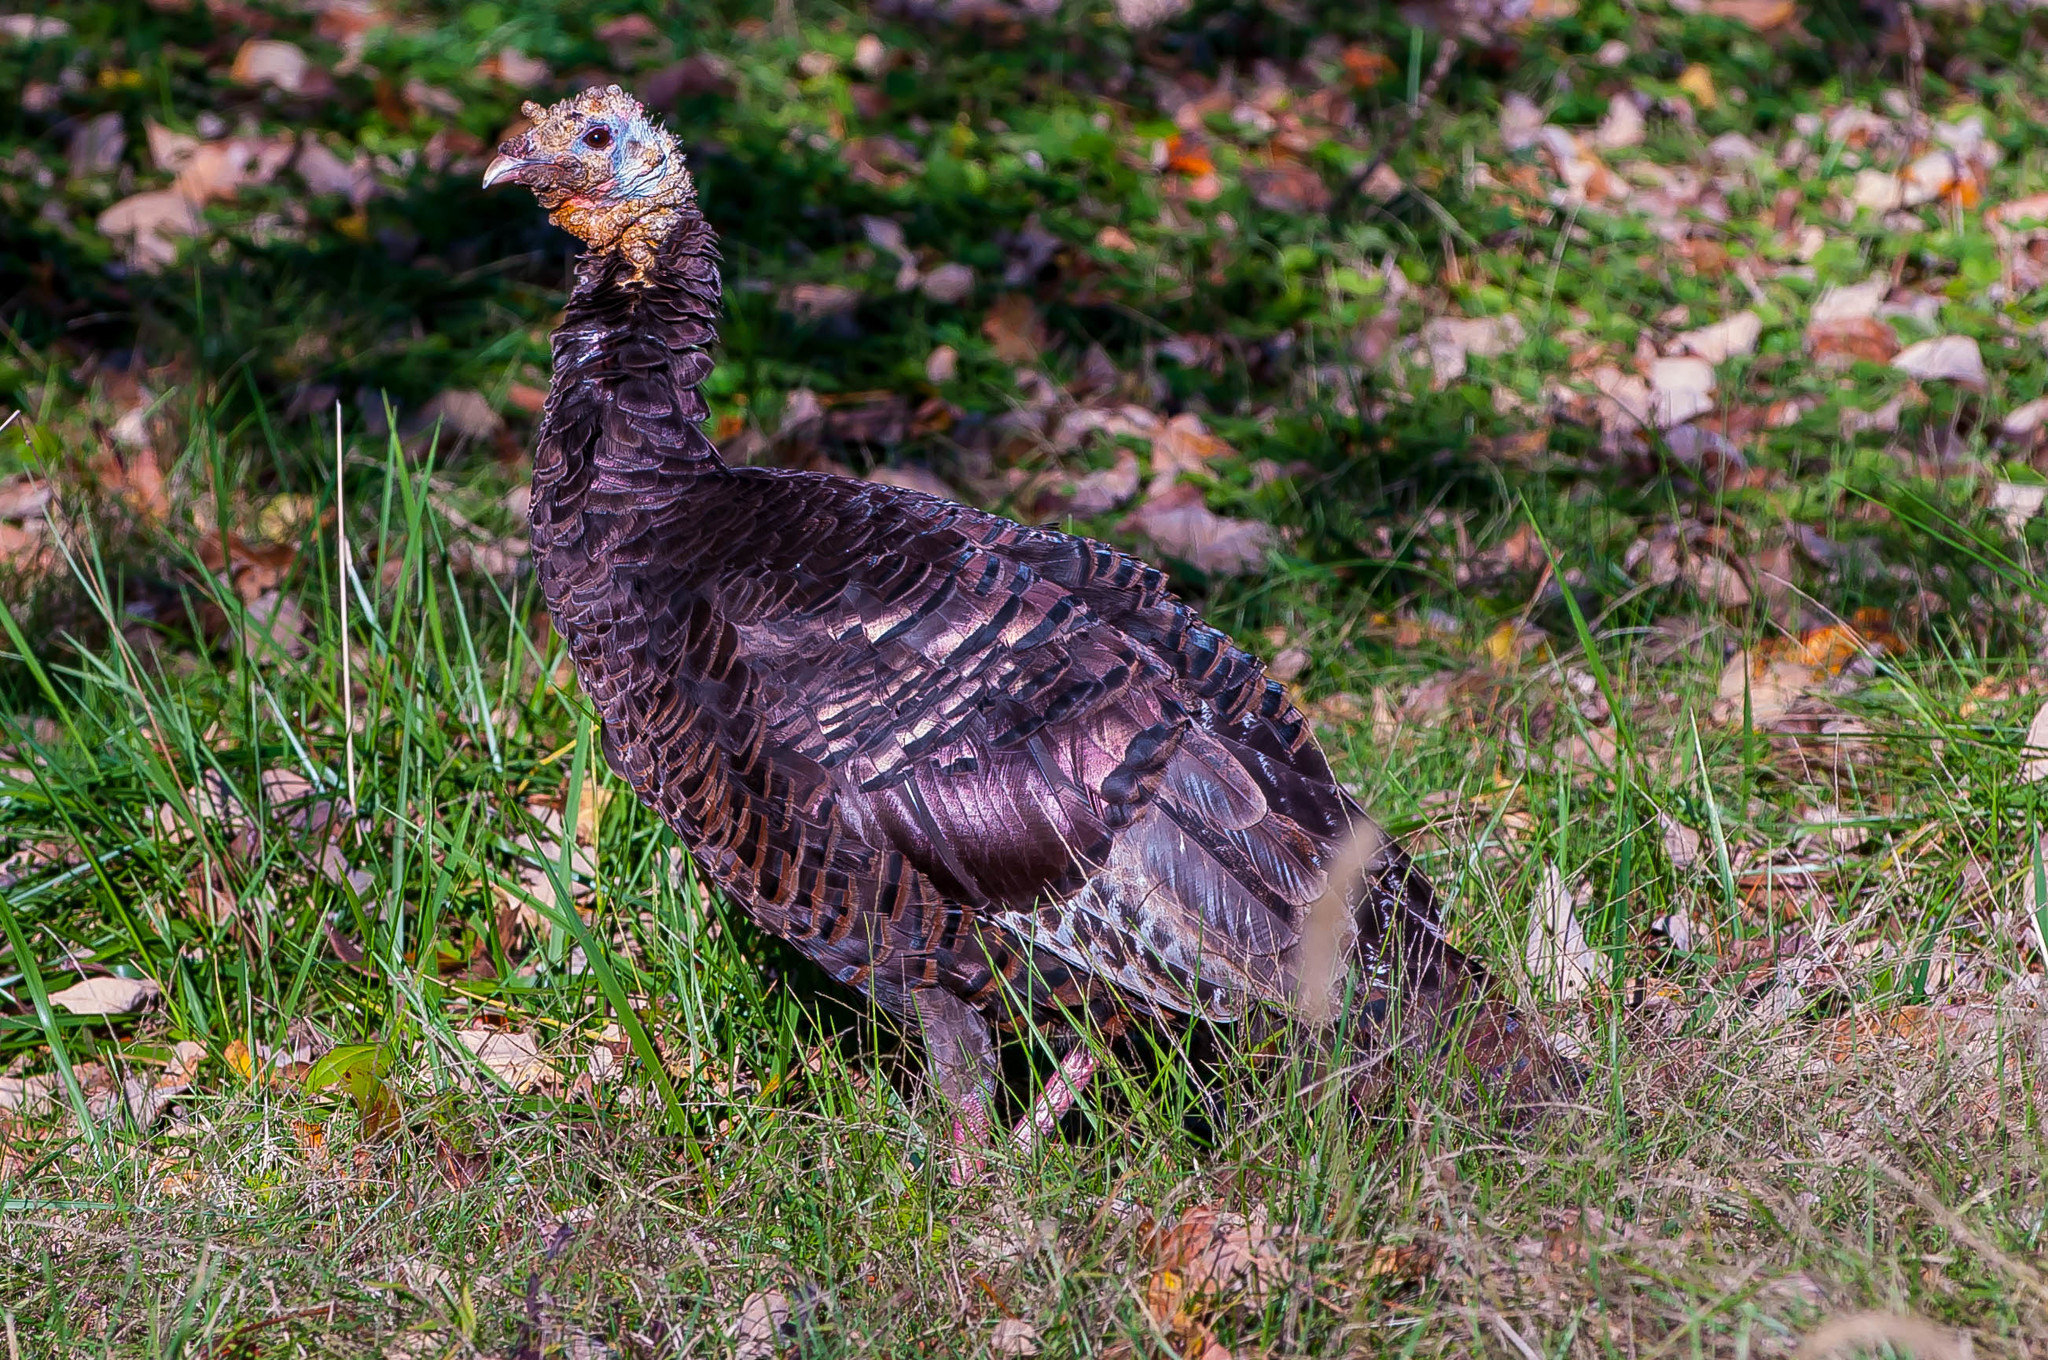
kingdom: Animalia
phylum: Chordata
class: Aves
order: Galliformes
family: Phasianidae
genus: Meleagris
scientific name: Meleagris gallopavo
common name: Wild turkey
